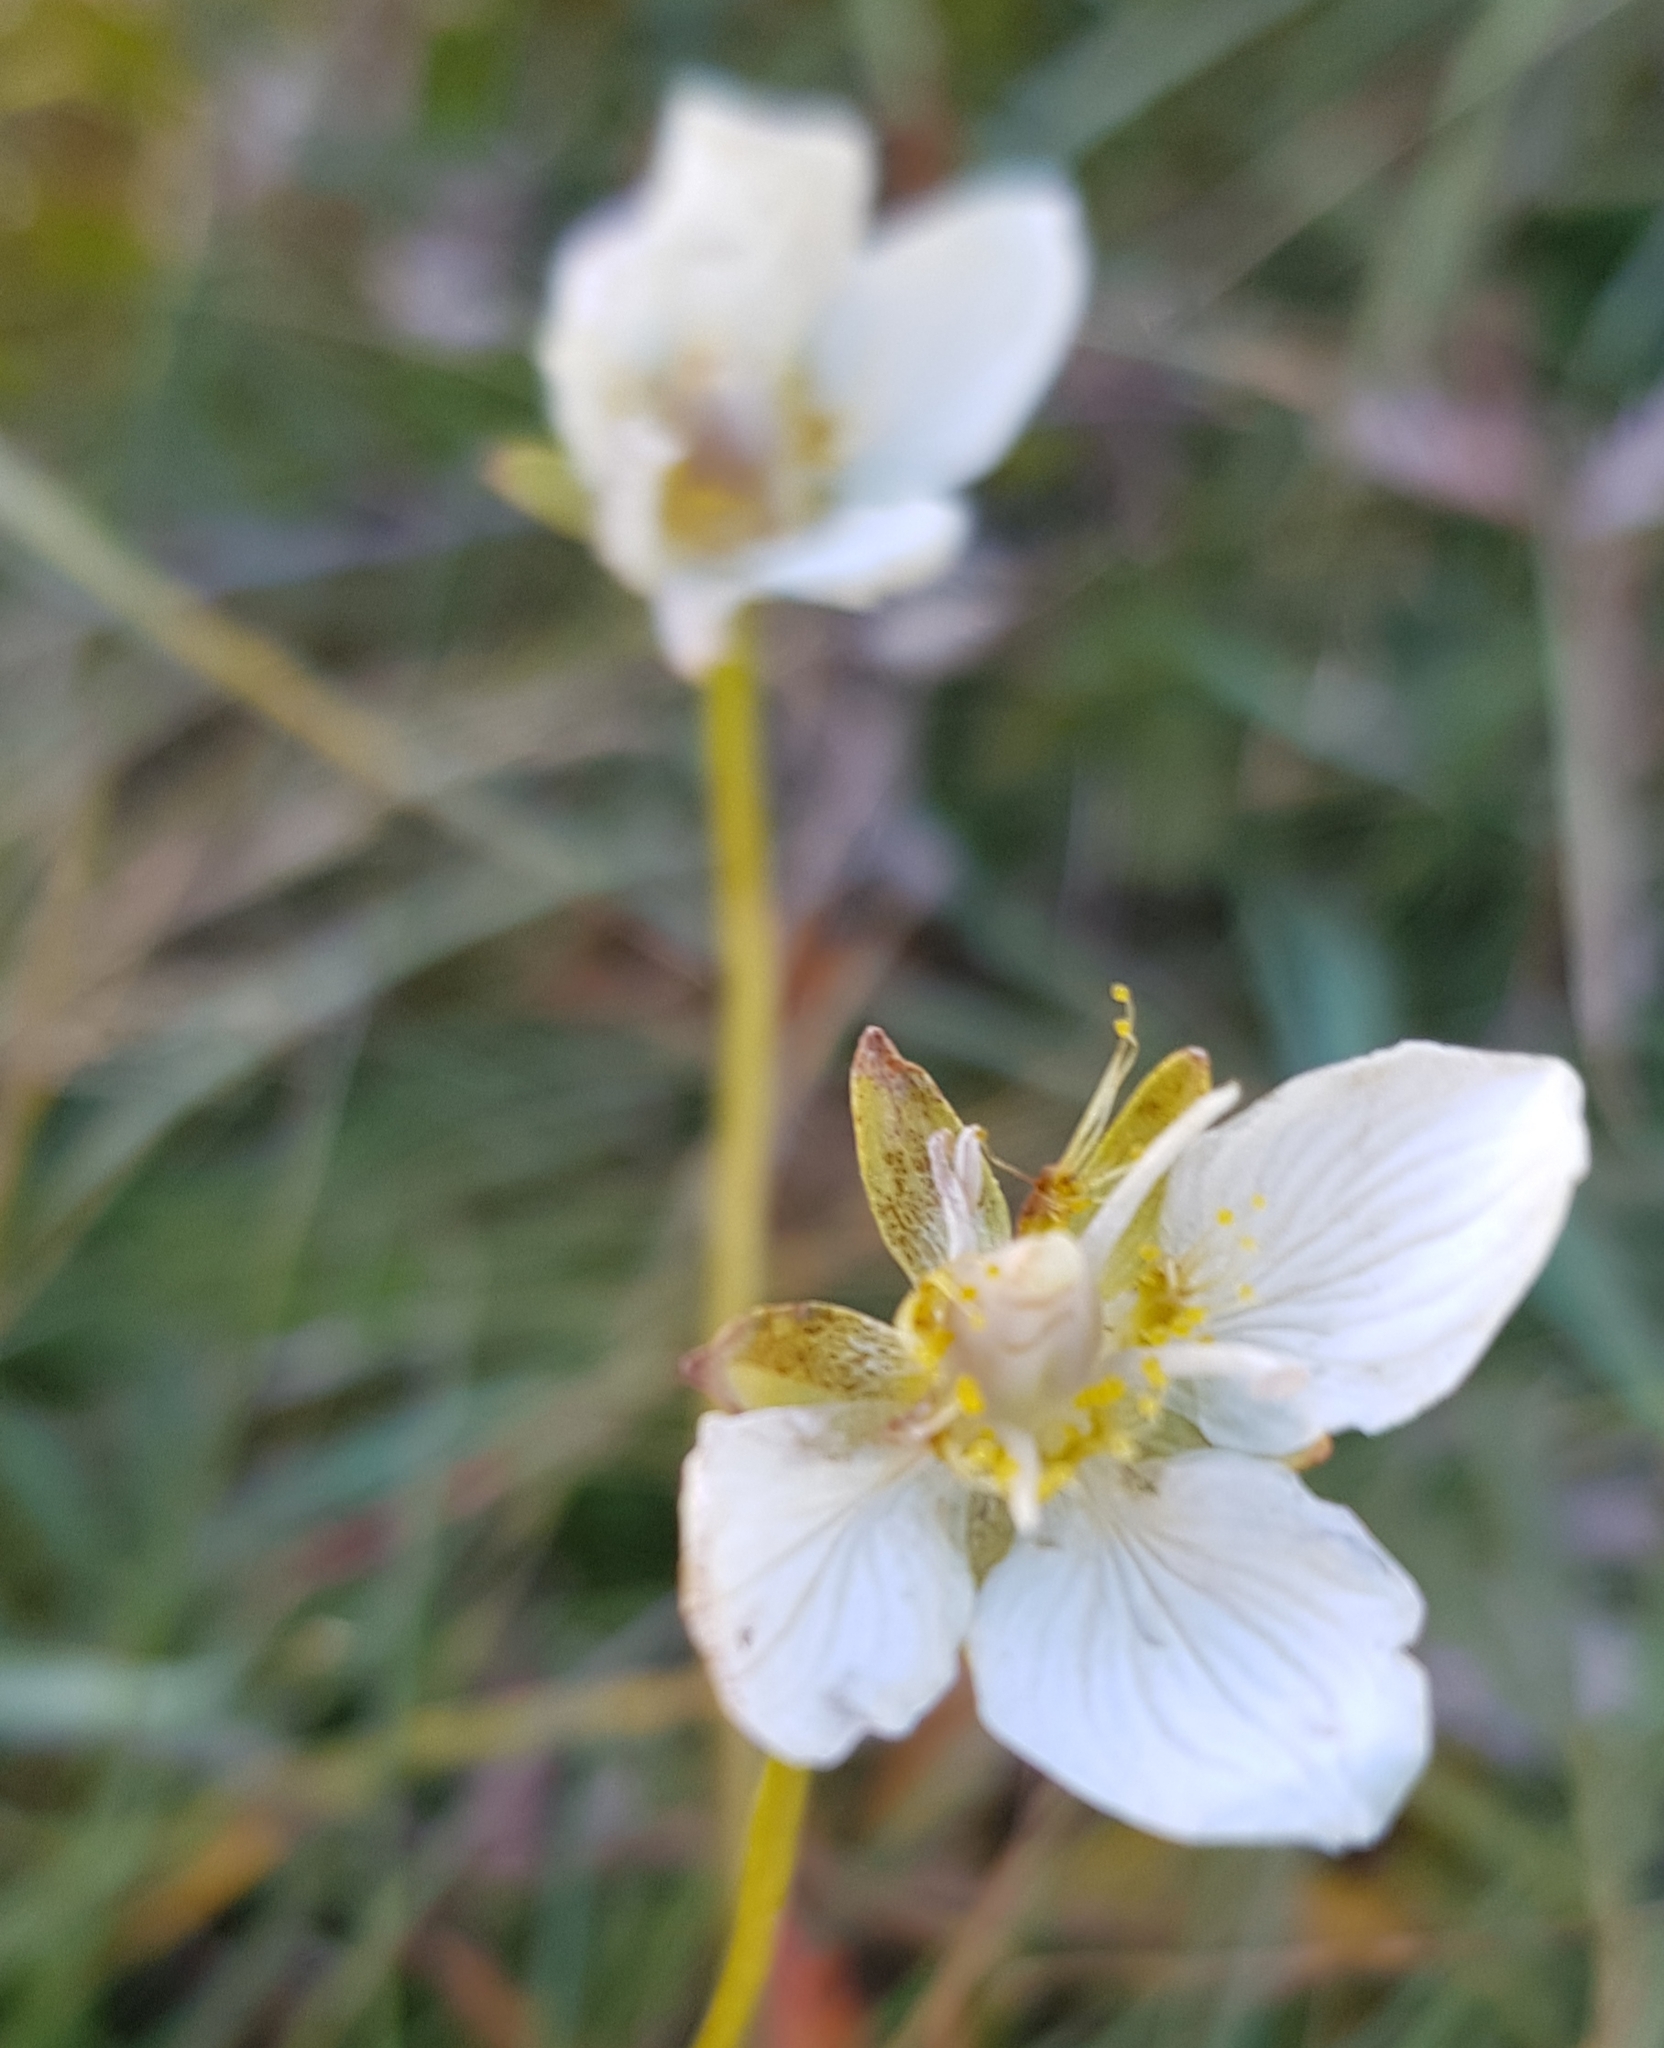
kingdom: Plantae
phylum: Tracheophyta
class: Magnoliopsida
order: Celastrales
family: Parnassiaceae
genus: Parnassia
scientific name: Parnassia palustris
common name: Grass-of-parnassus
